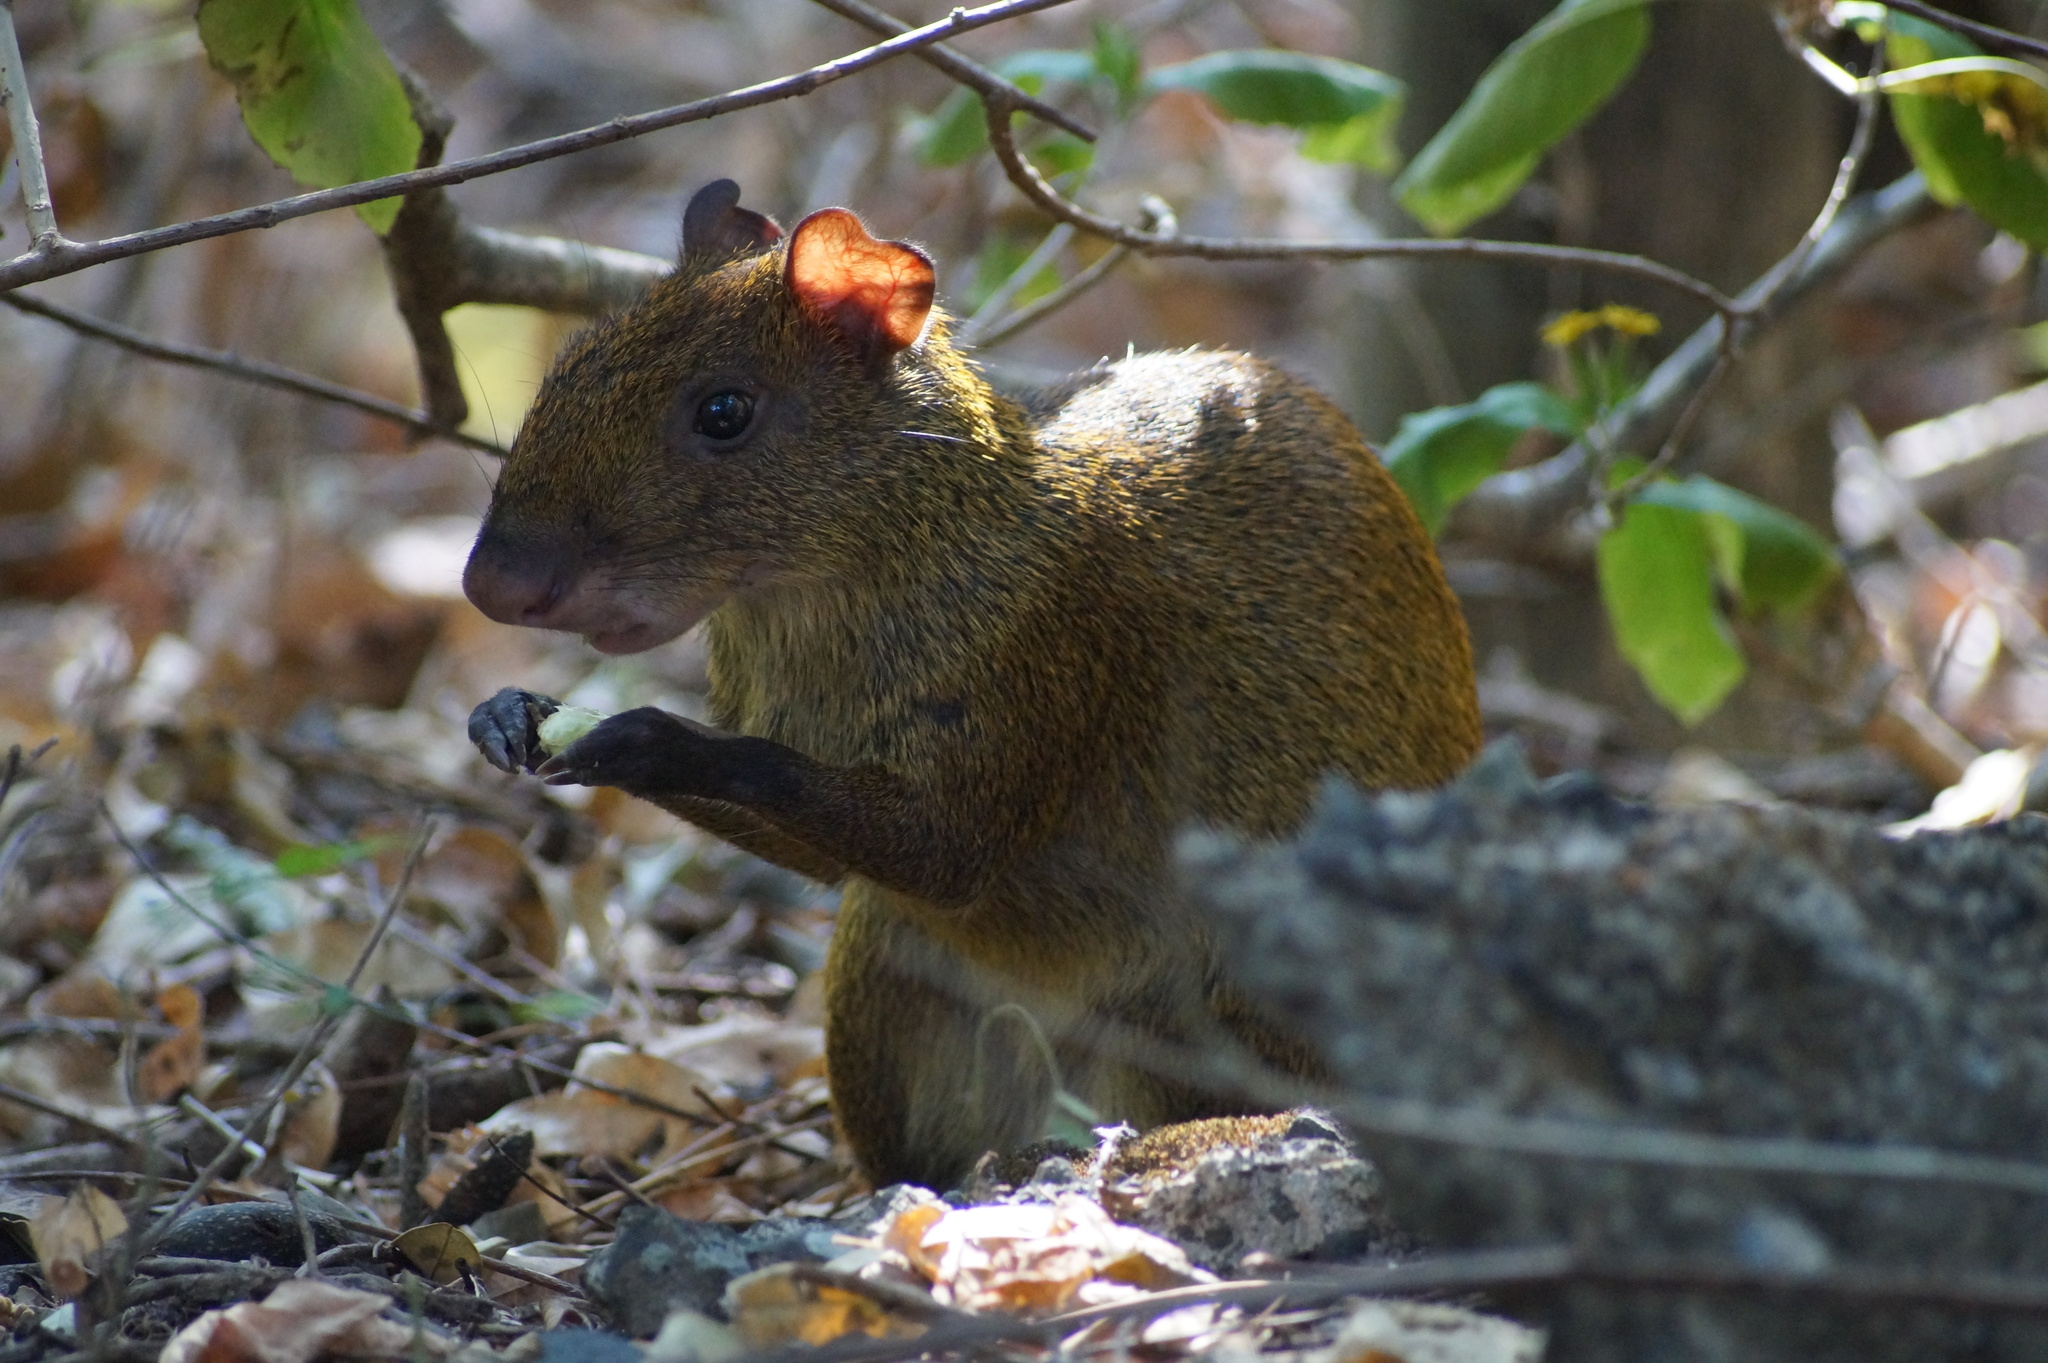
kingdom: Animalia
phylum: Chordata
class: Mammalia
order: Rodentia
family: Dasyproctidae
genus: Dasyprocta
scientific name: Dasyprocta punctata
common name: Central american agouti
